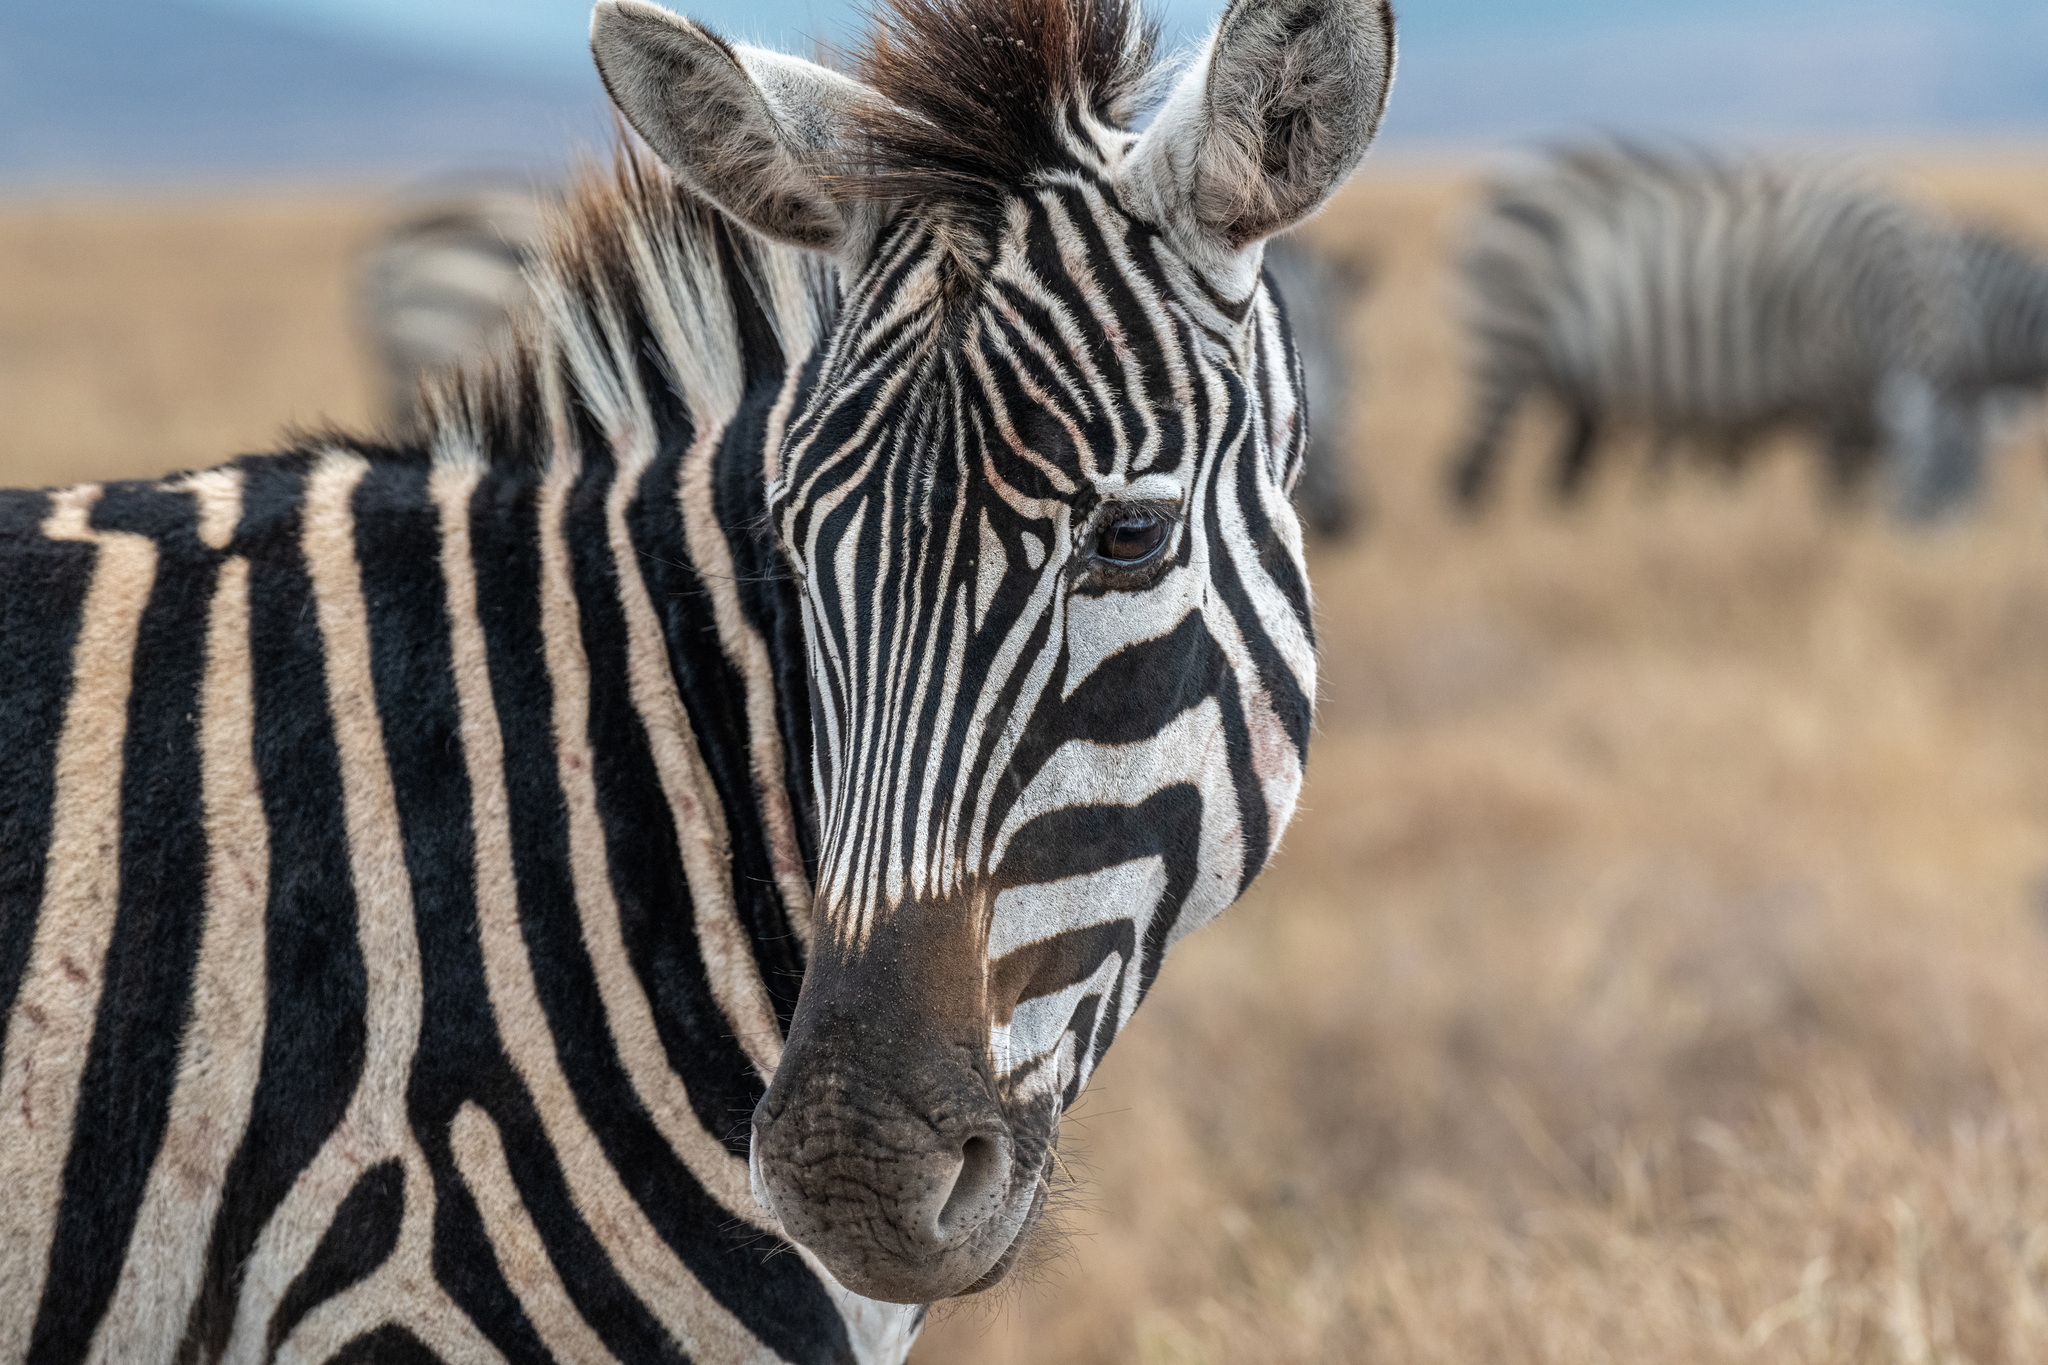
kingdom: Animalia
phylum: Chordata
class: Mammalia
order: Perissodactyla
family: Equidae
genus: Equus
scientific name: Equus quagga
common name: Plains zebra
